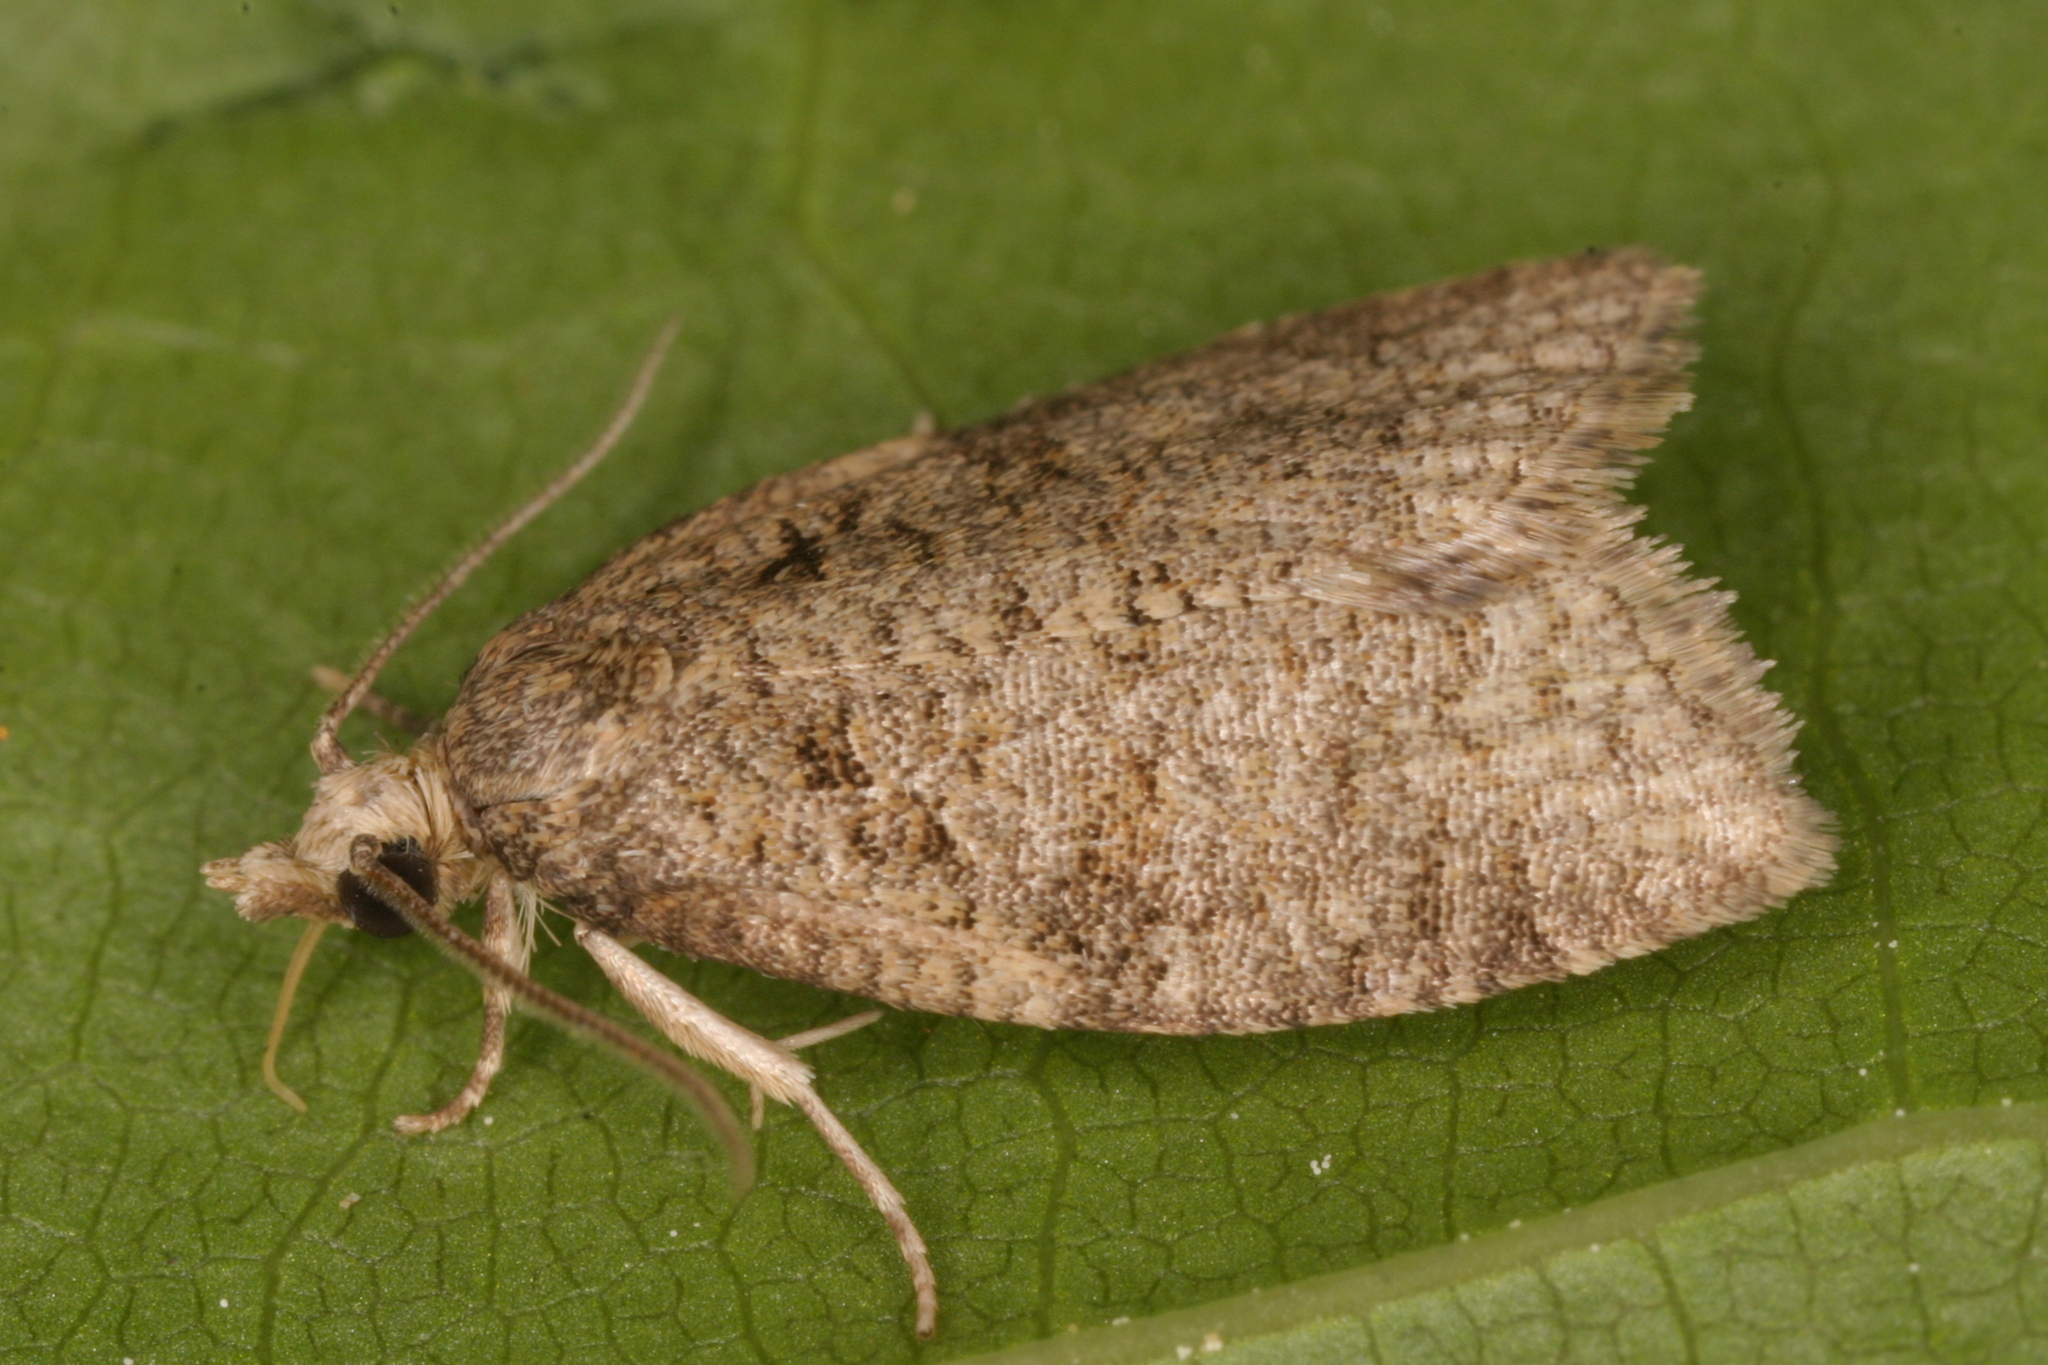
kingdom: Animalia
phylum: Arthropoda
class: Insecta
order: Lepidoptera
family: Tortricidae
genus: Capua
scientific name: Capua vulgana
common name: Common twist
